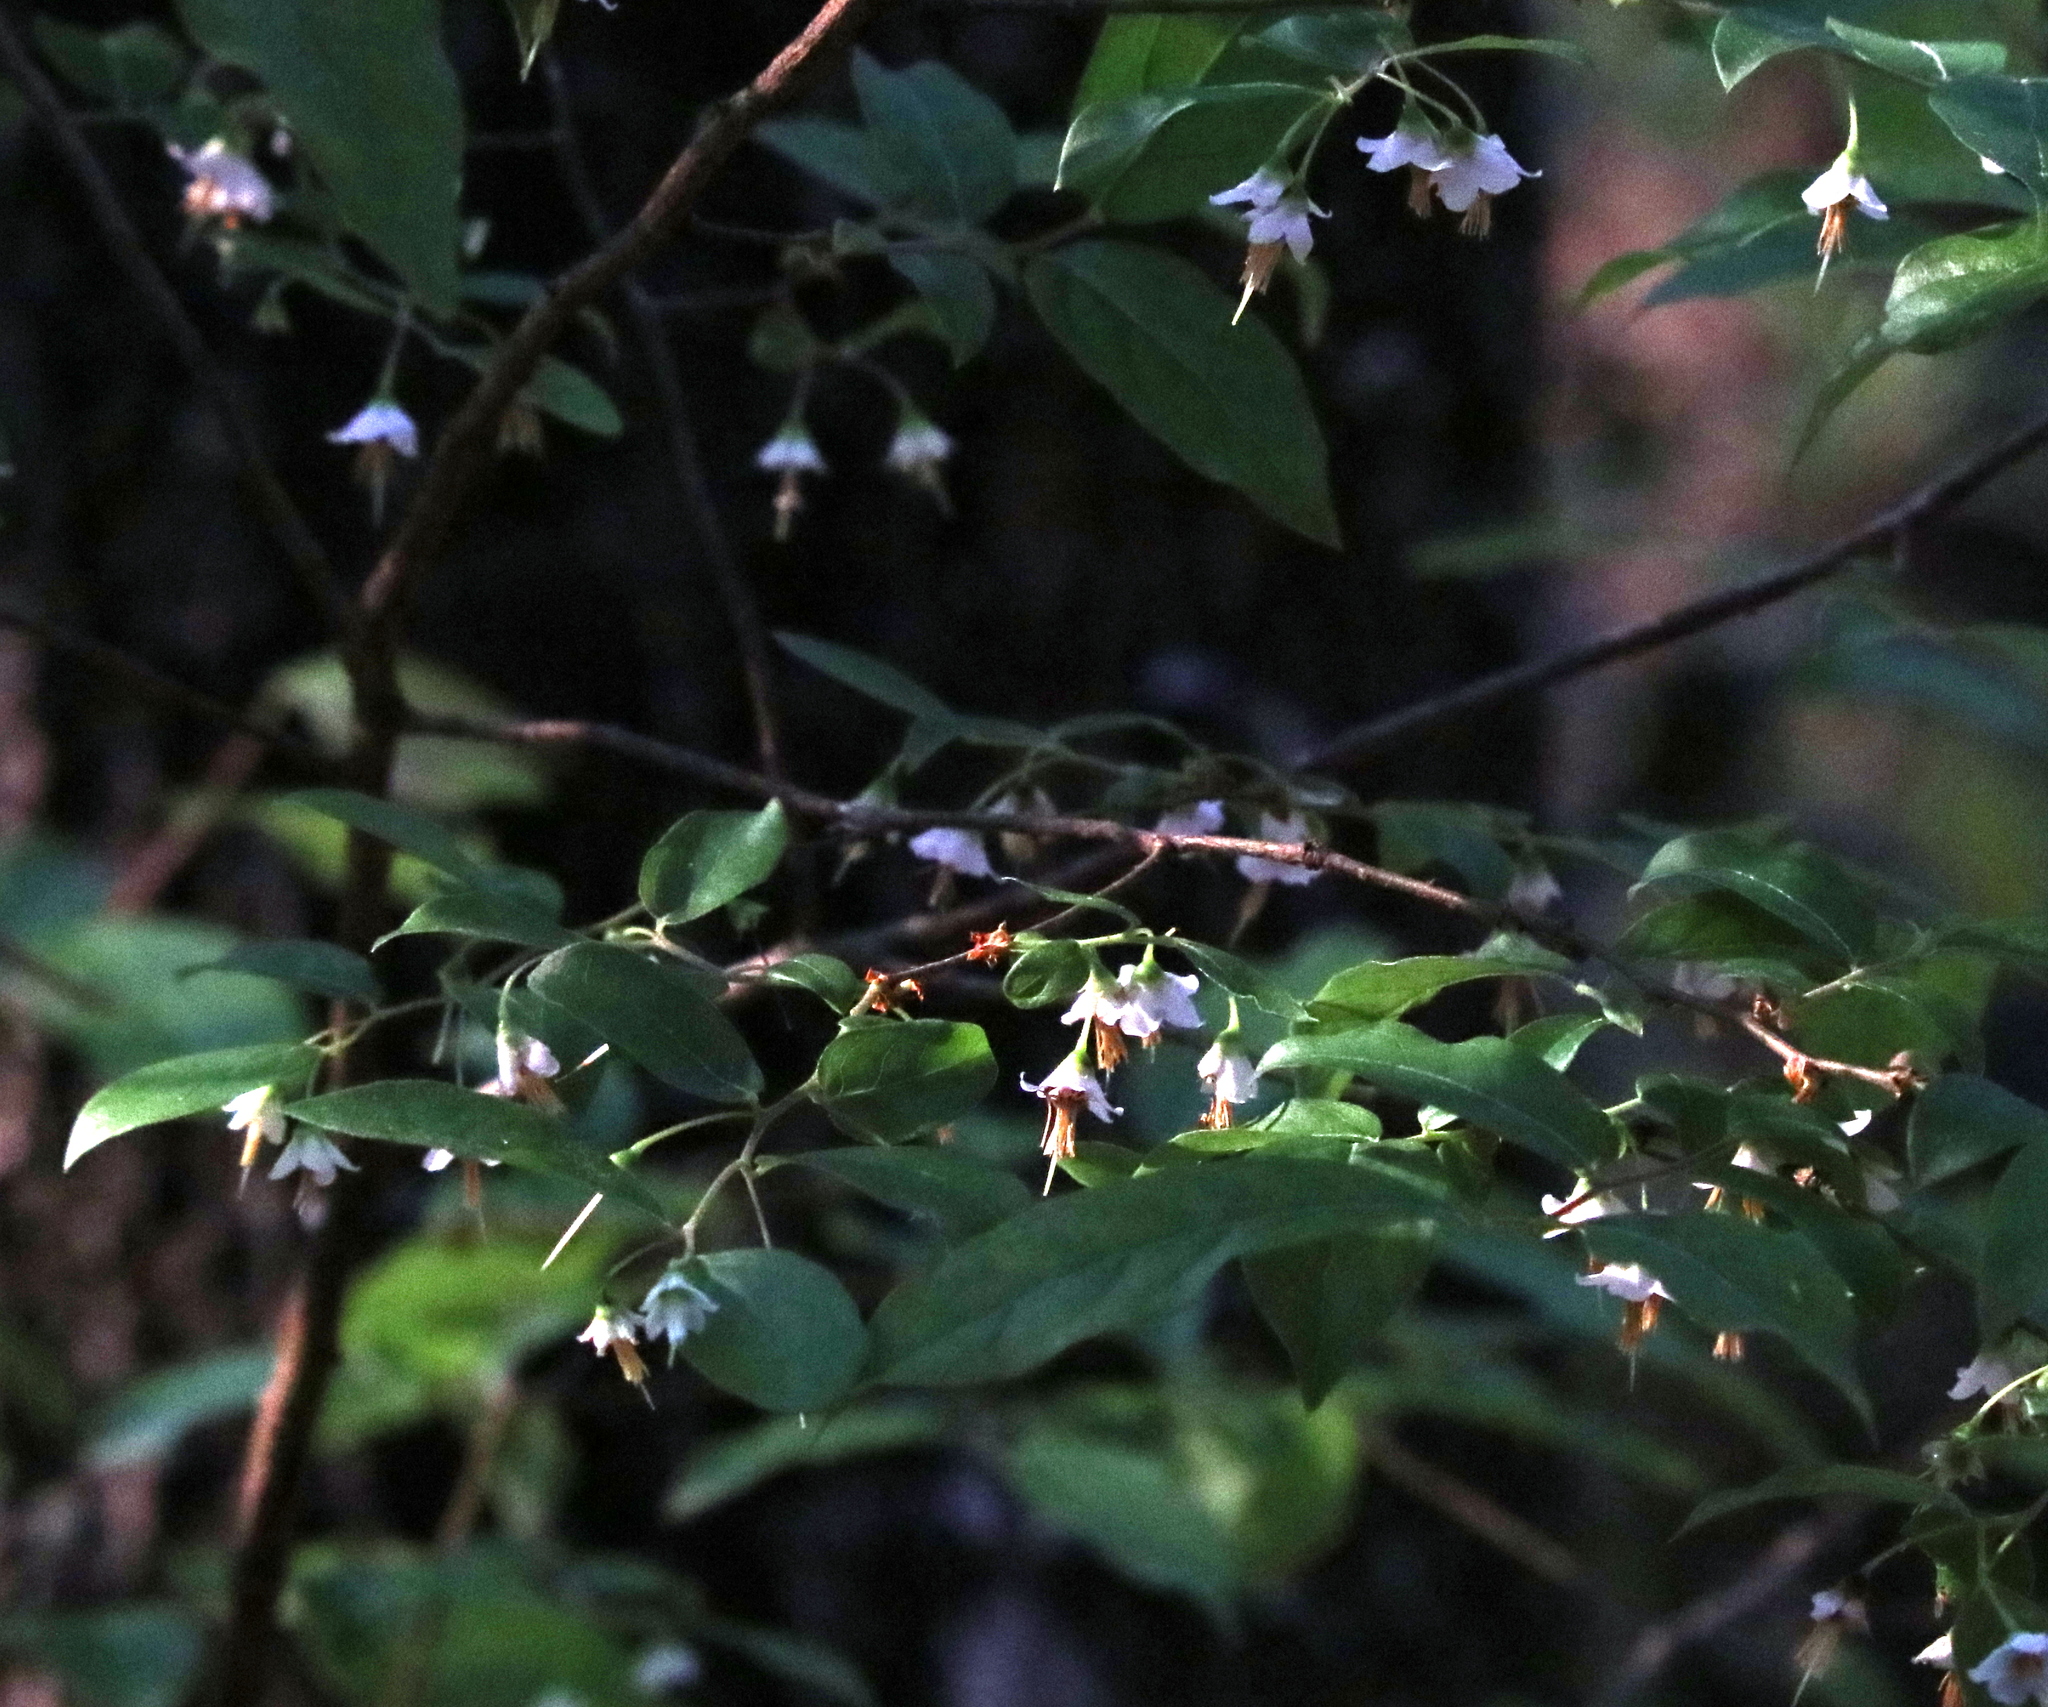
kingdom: Plantae
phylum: Tracheophyta
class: Magnoliopsida
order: Ericales
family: Ericaceae
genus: Vaccinium
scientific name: Vaccinium stamineum
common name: Deerberry
